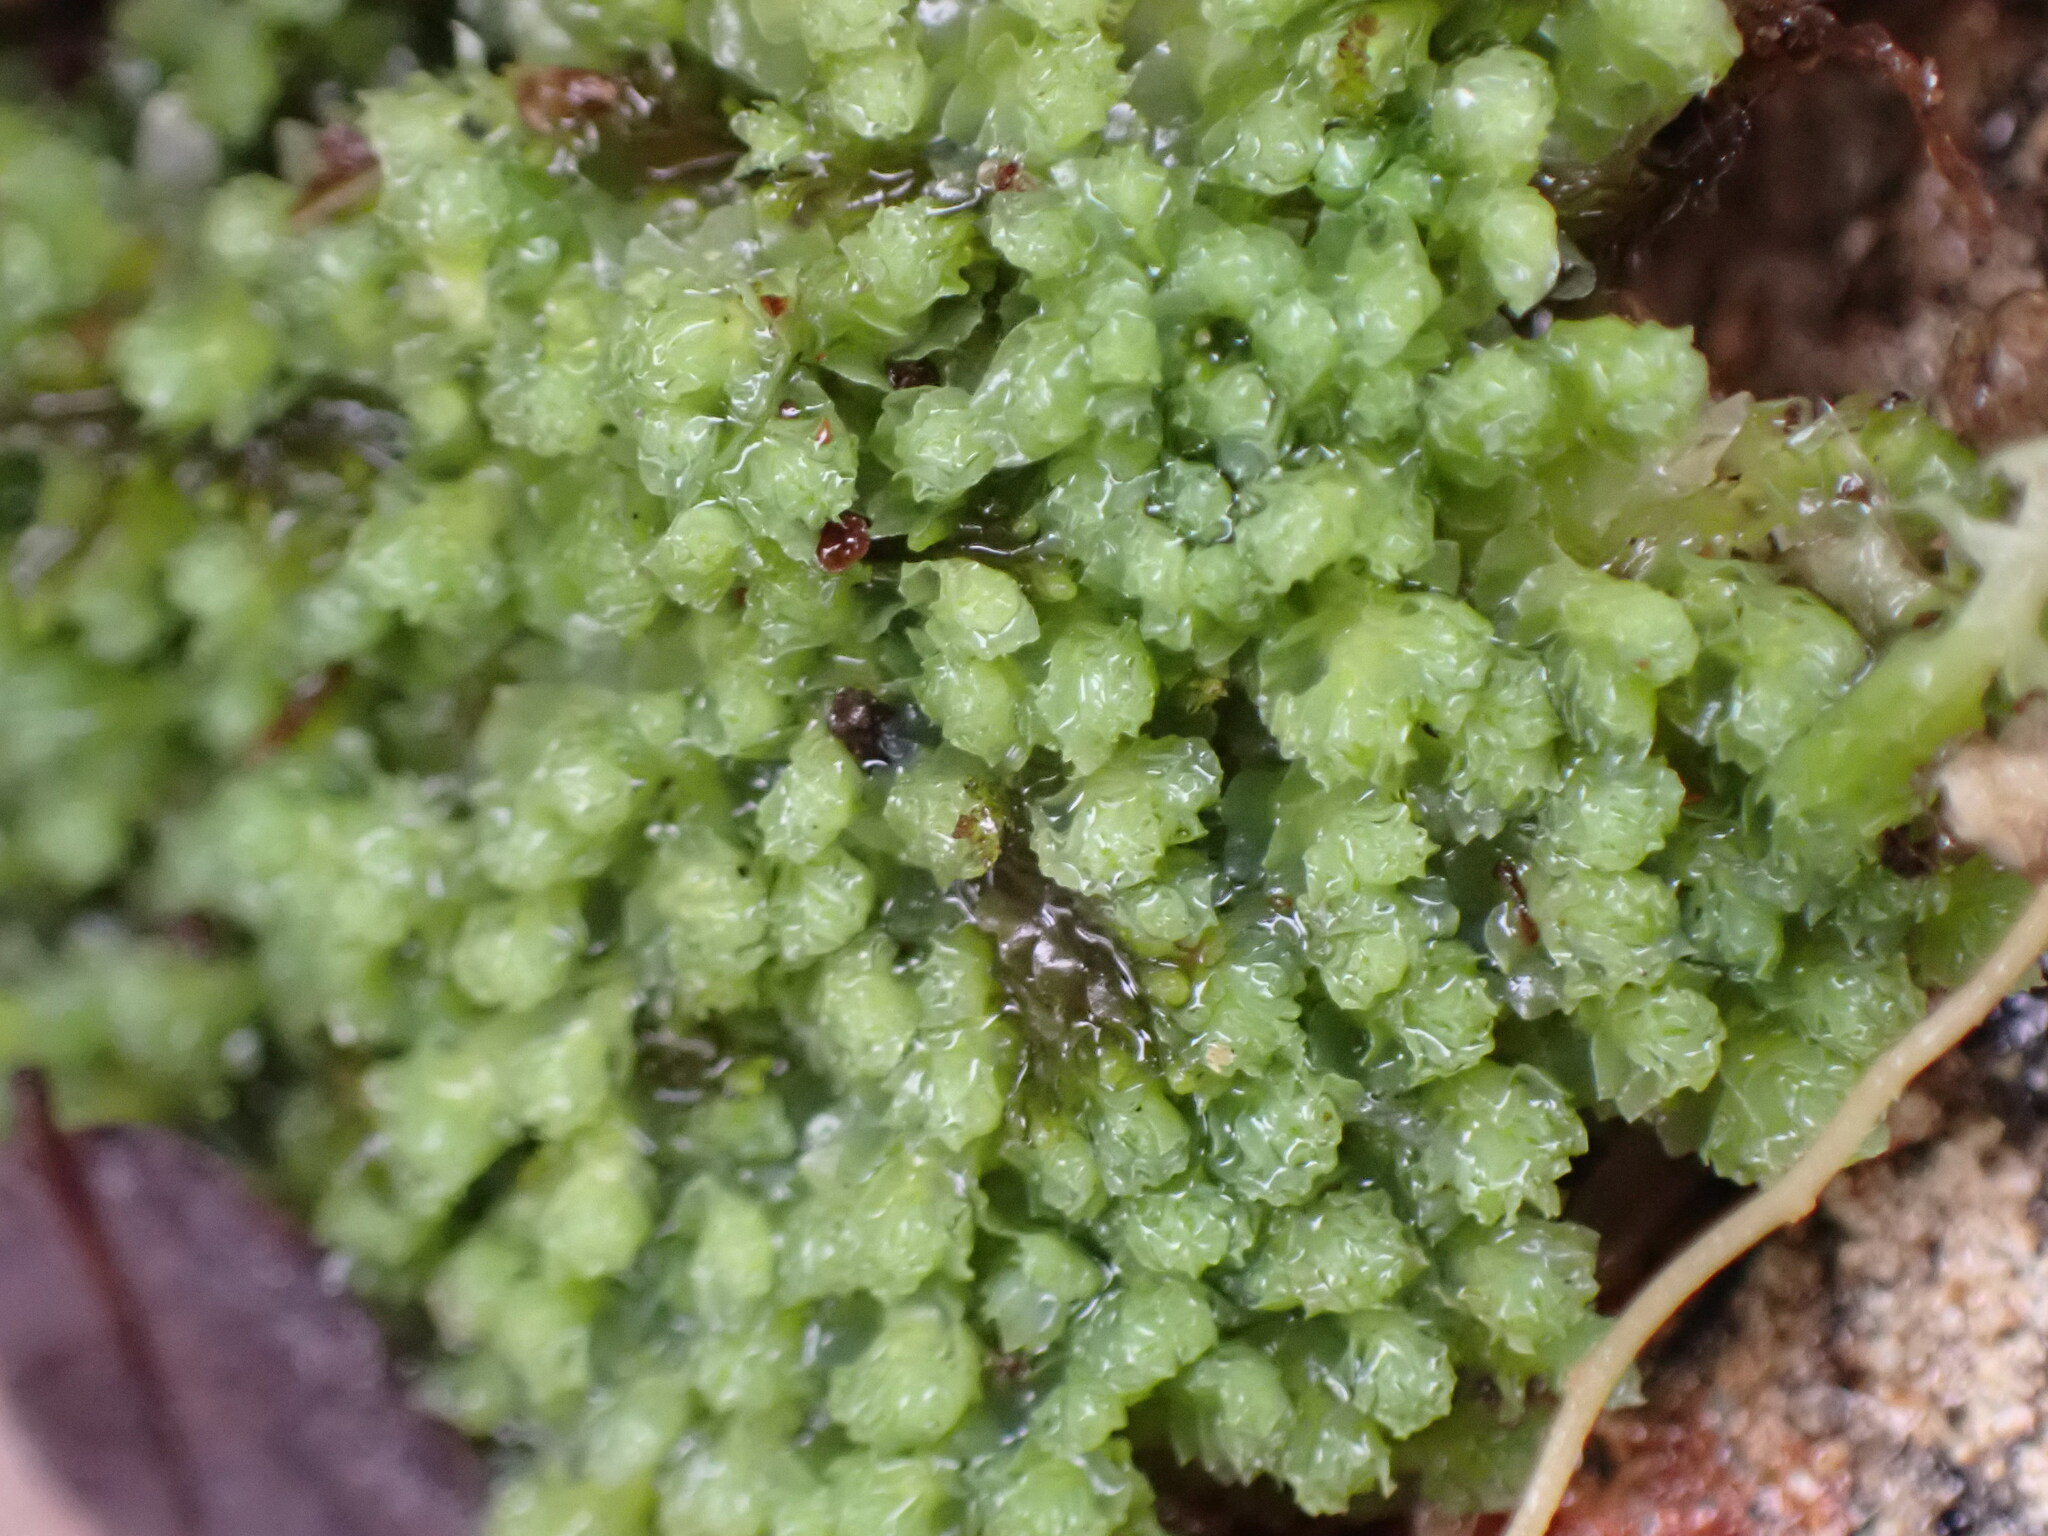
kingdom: Plantae
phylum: Marchantiophyta
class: Jungermanniopsida
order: Jungermanniales
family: Scapaniaceae
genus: Schistochilopsis
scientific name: Schistochilopsis opacifolia
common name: Alpine jagged notchwort
